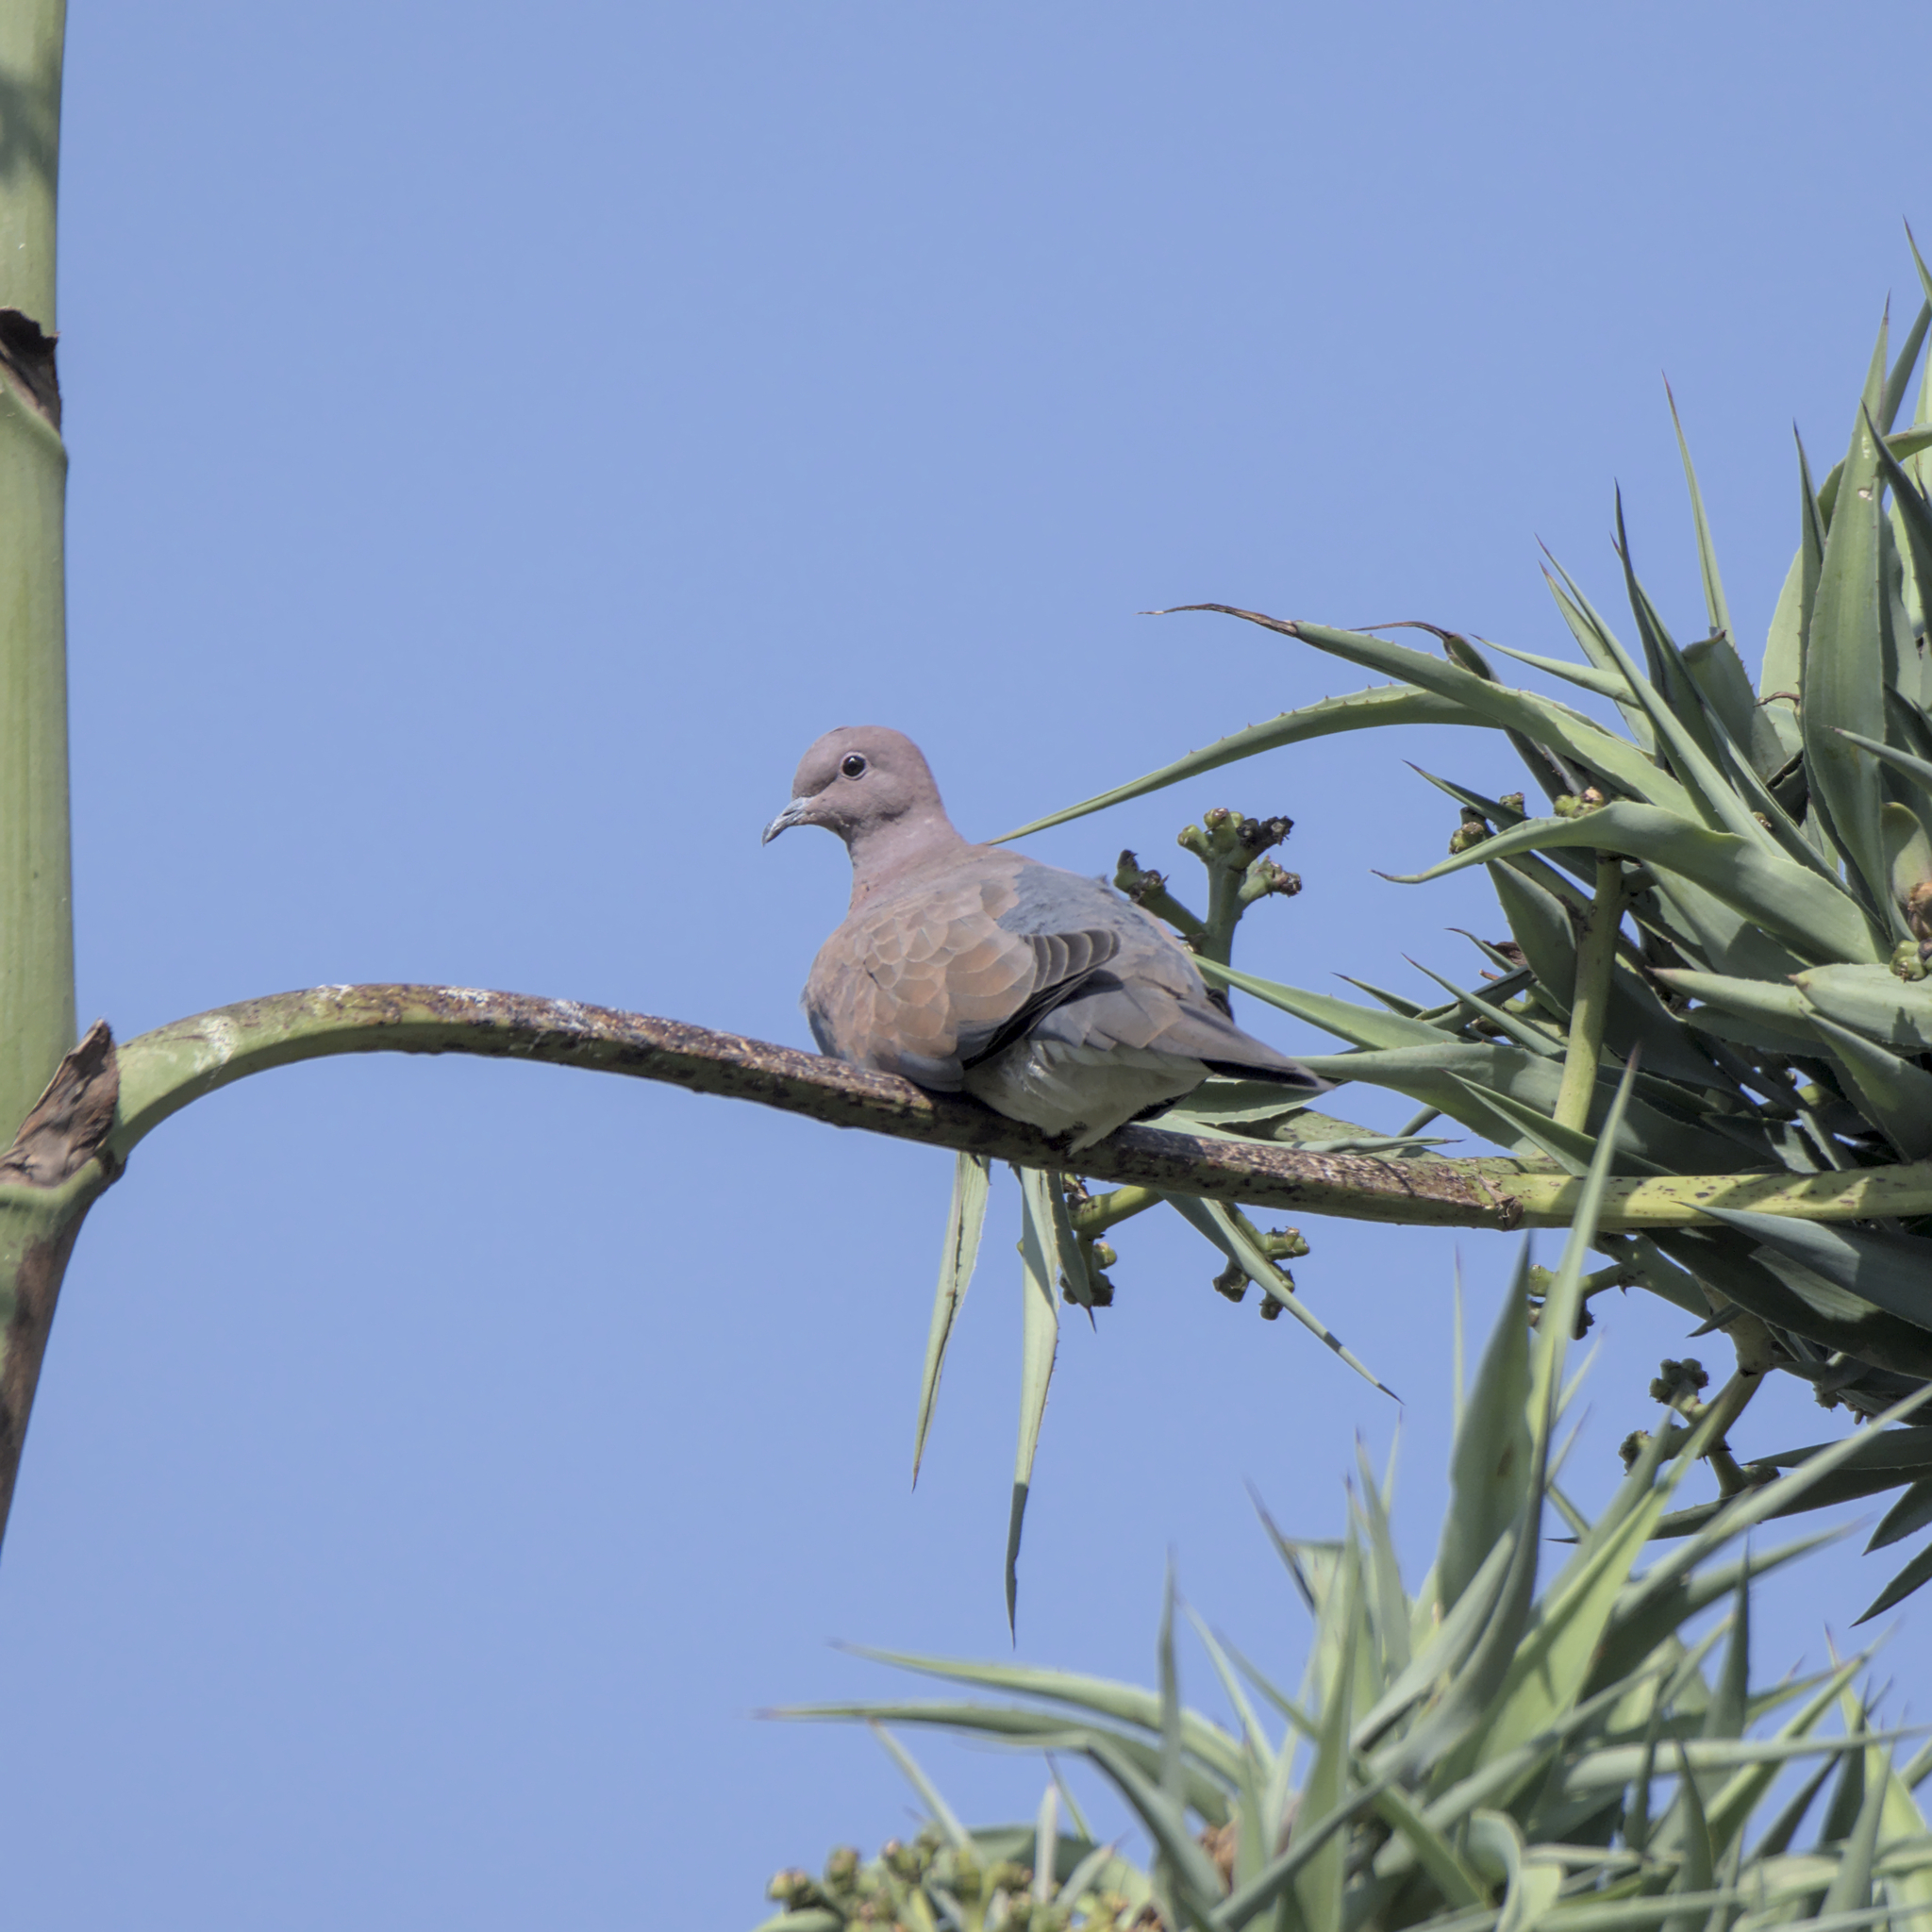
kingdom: Animalia
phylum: Chordata
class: Aves
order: Columbiformes
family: Columbidae
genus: Spilopelia
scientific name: Spilopelia senegalensis
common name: Laughing dove
